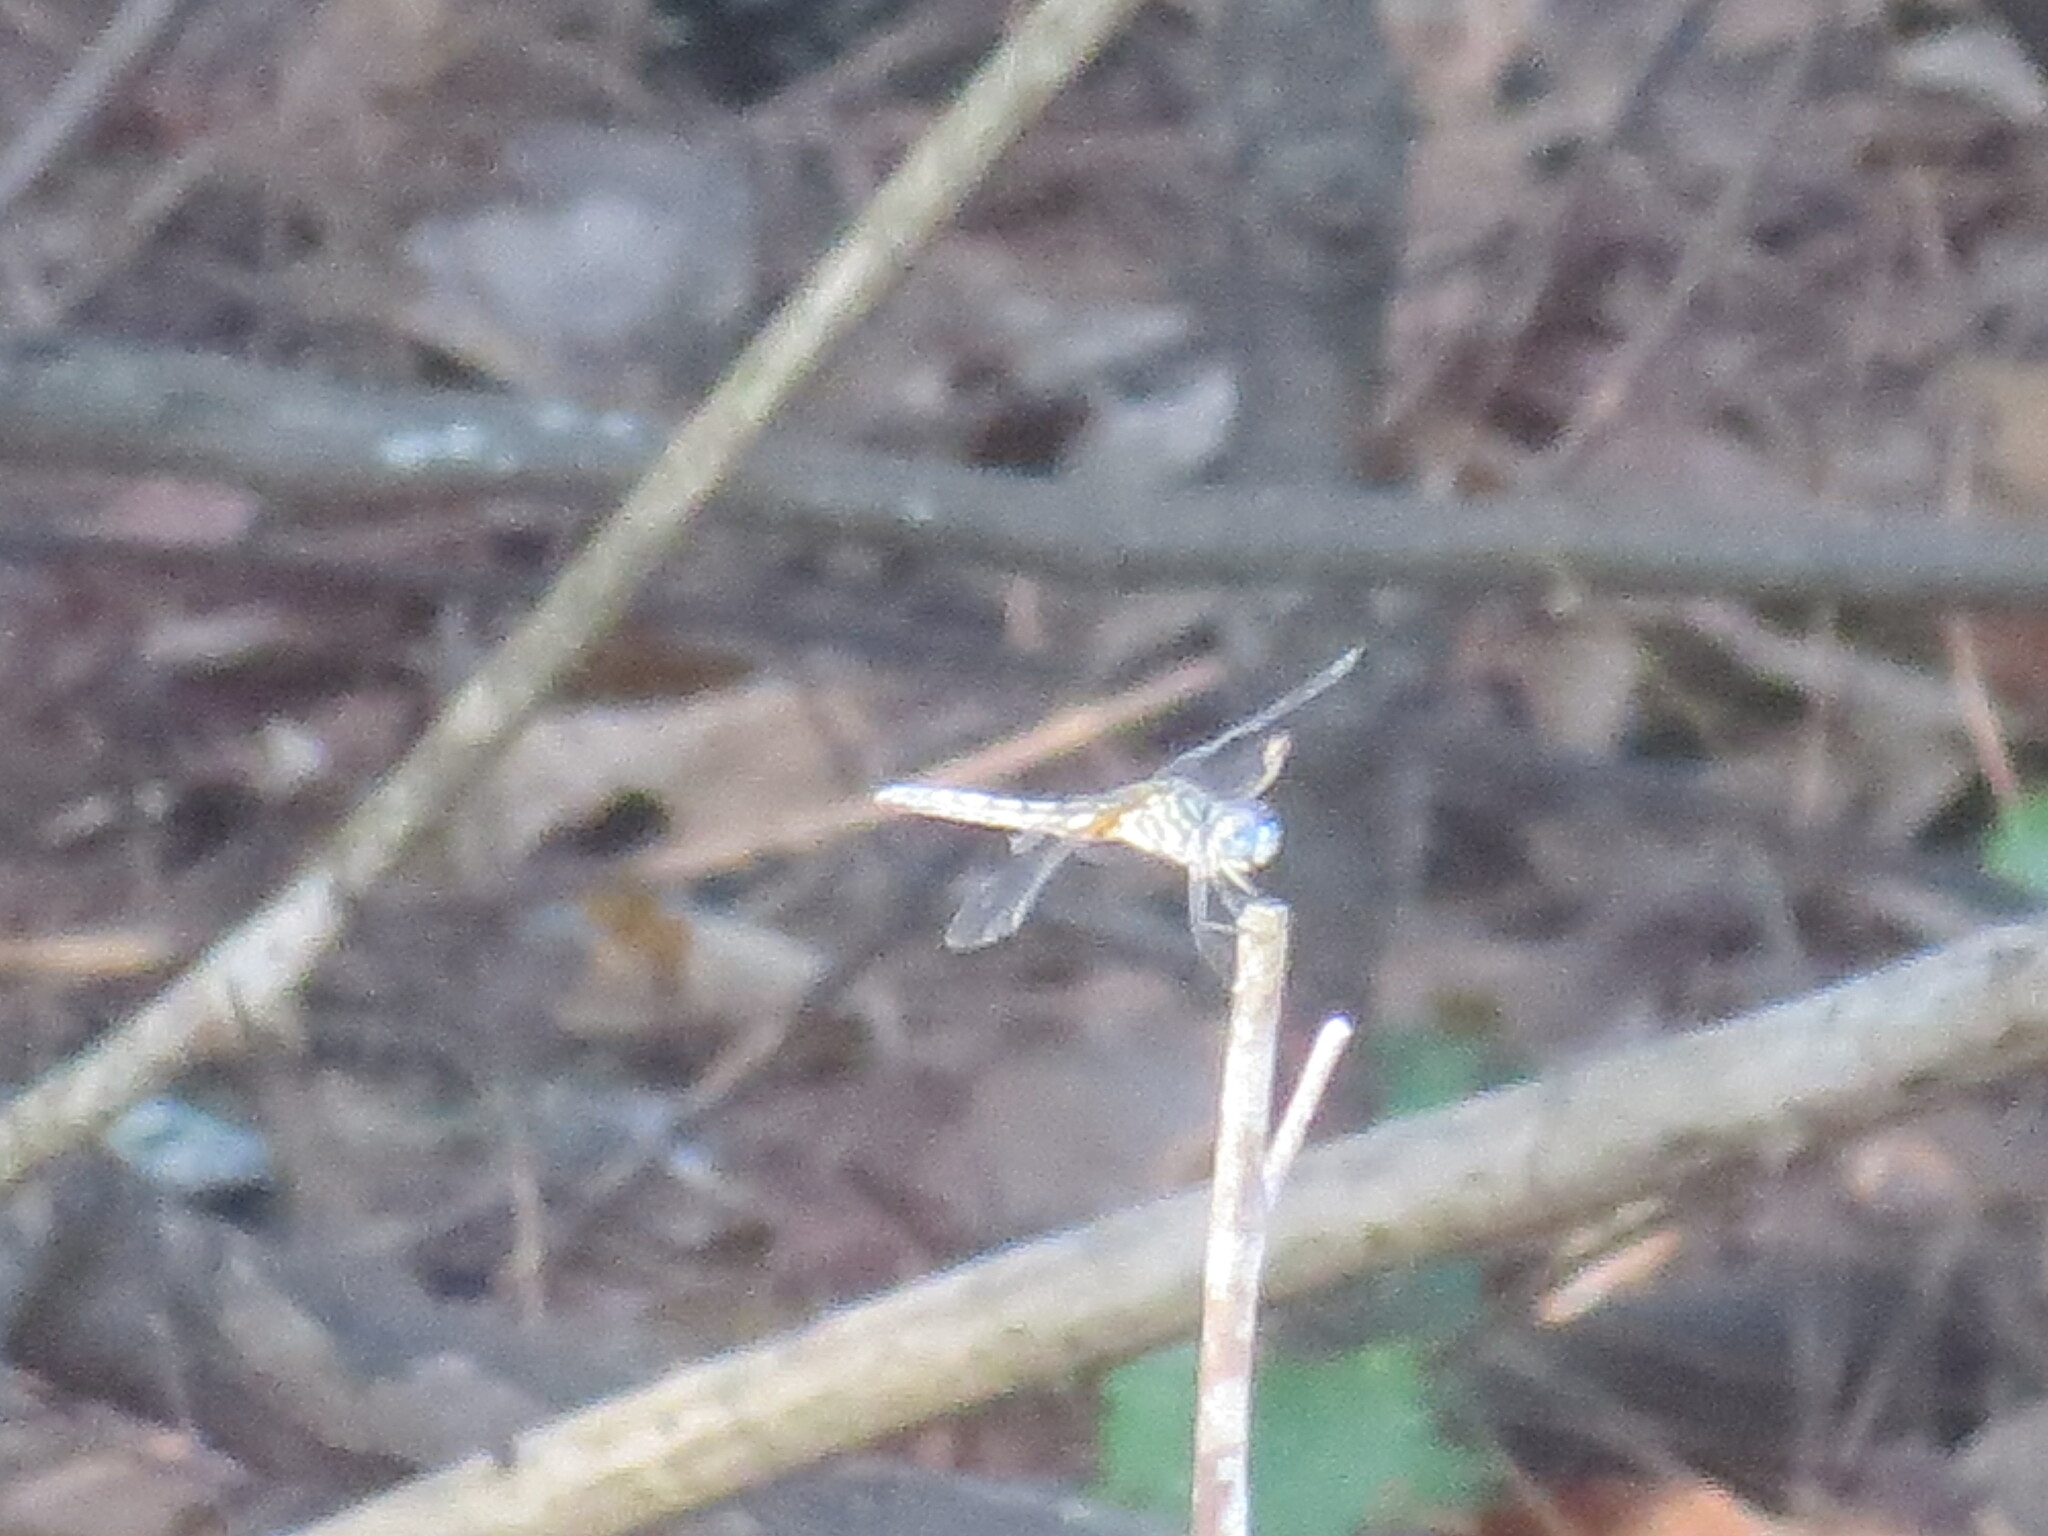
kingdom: Animalia
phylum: Arthropoda
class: Insecta
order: Odonata
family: Libellulidae
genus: Pachydiplax
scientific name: Pachydiplax longipennis
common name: Blue dasher
